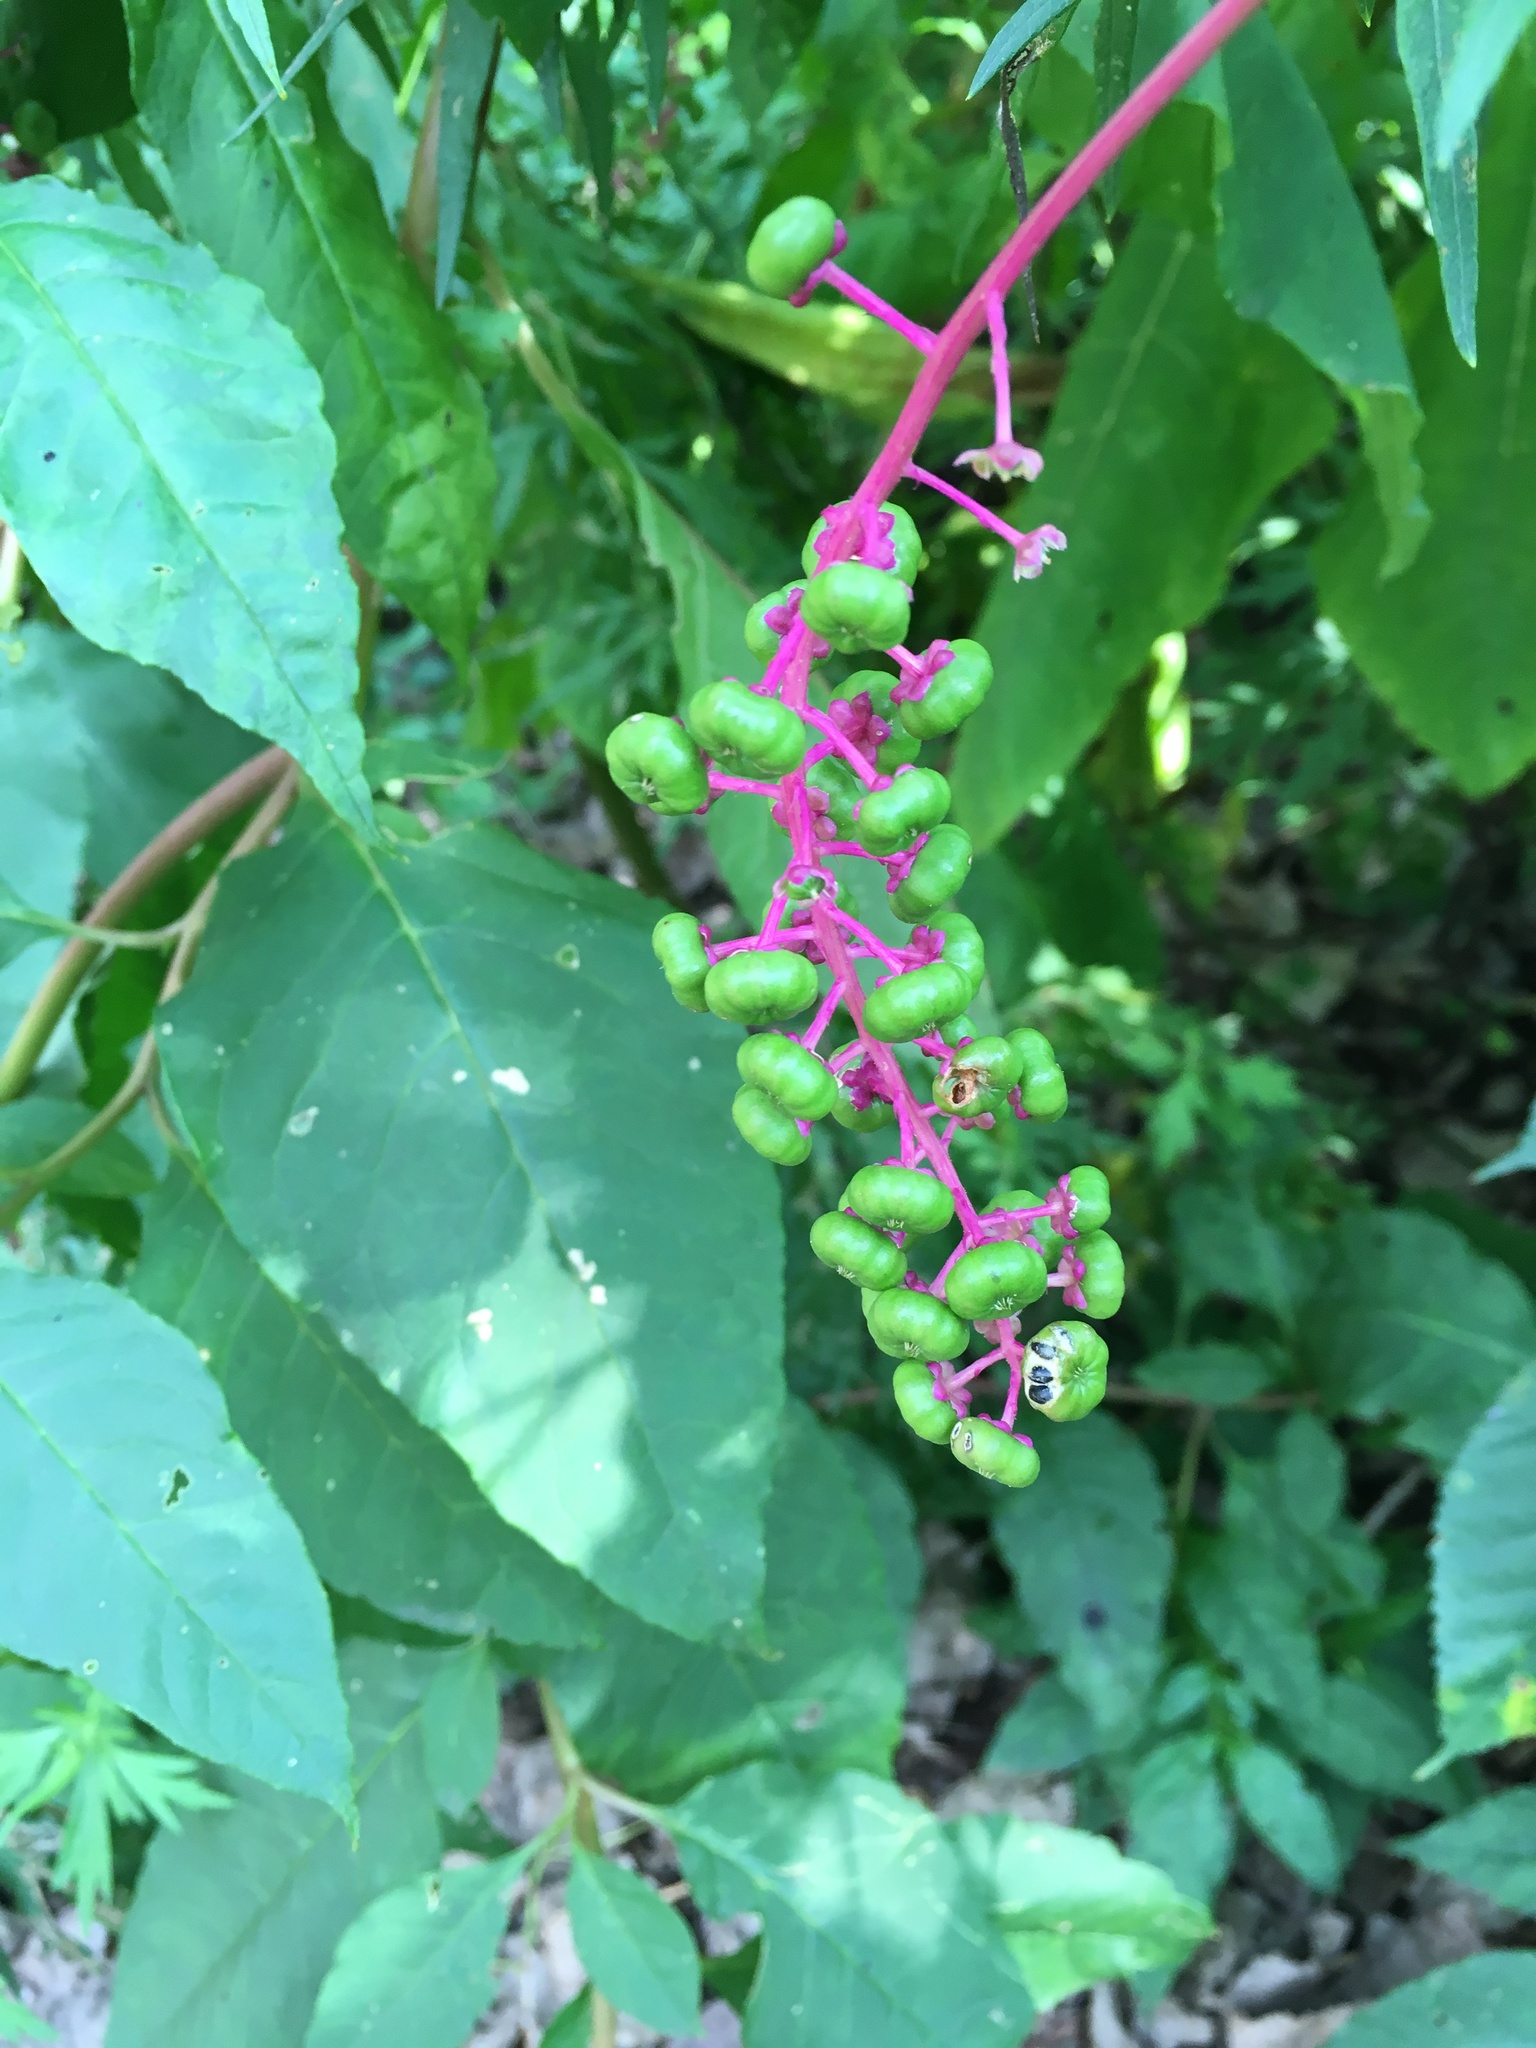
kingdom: Plantae
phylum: Tracheophyta
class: Magnoliopsida
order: Caryophyllales
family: Phytolaccaceae
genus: Phytolacca
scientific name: Phytolacca americana
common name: American pokeweed
